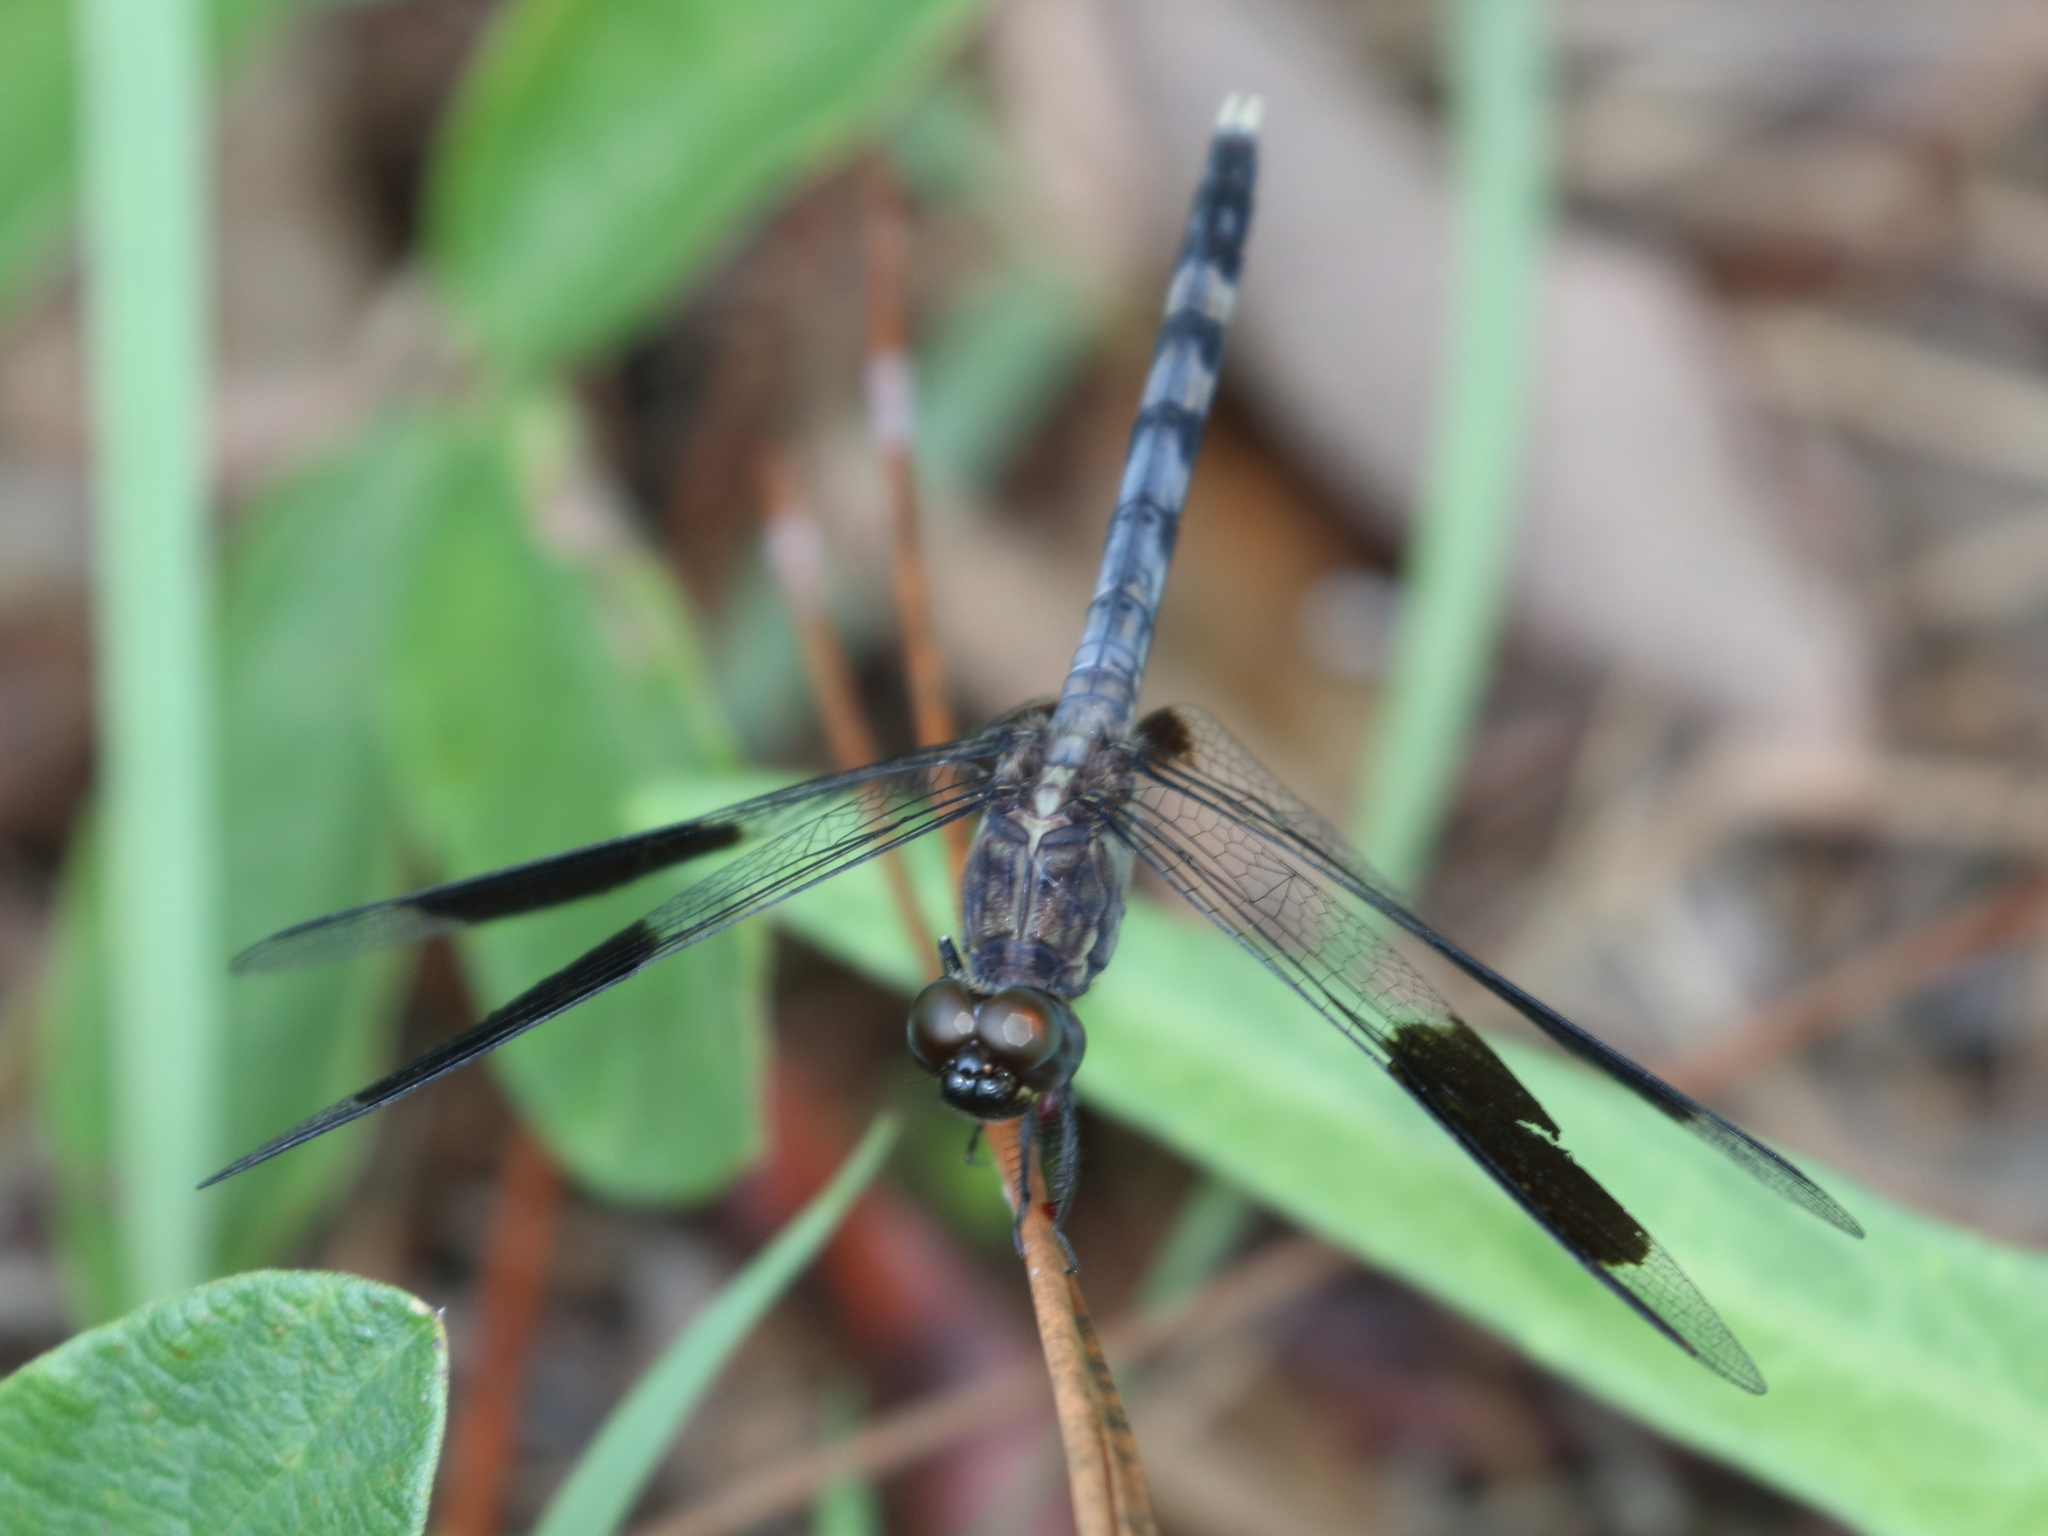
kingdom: Animalia
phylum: Arthropoda
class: Insecta
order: Odonata
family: Libellulidae
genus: Erythrodiplax
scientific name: Erythrodiplax umbrata
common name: Band-winged dragonlet
